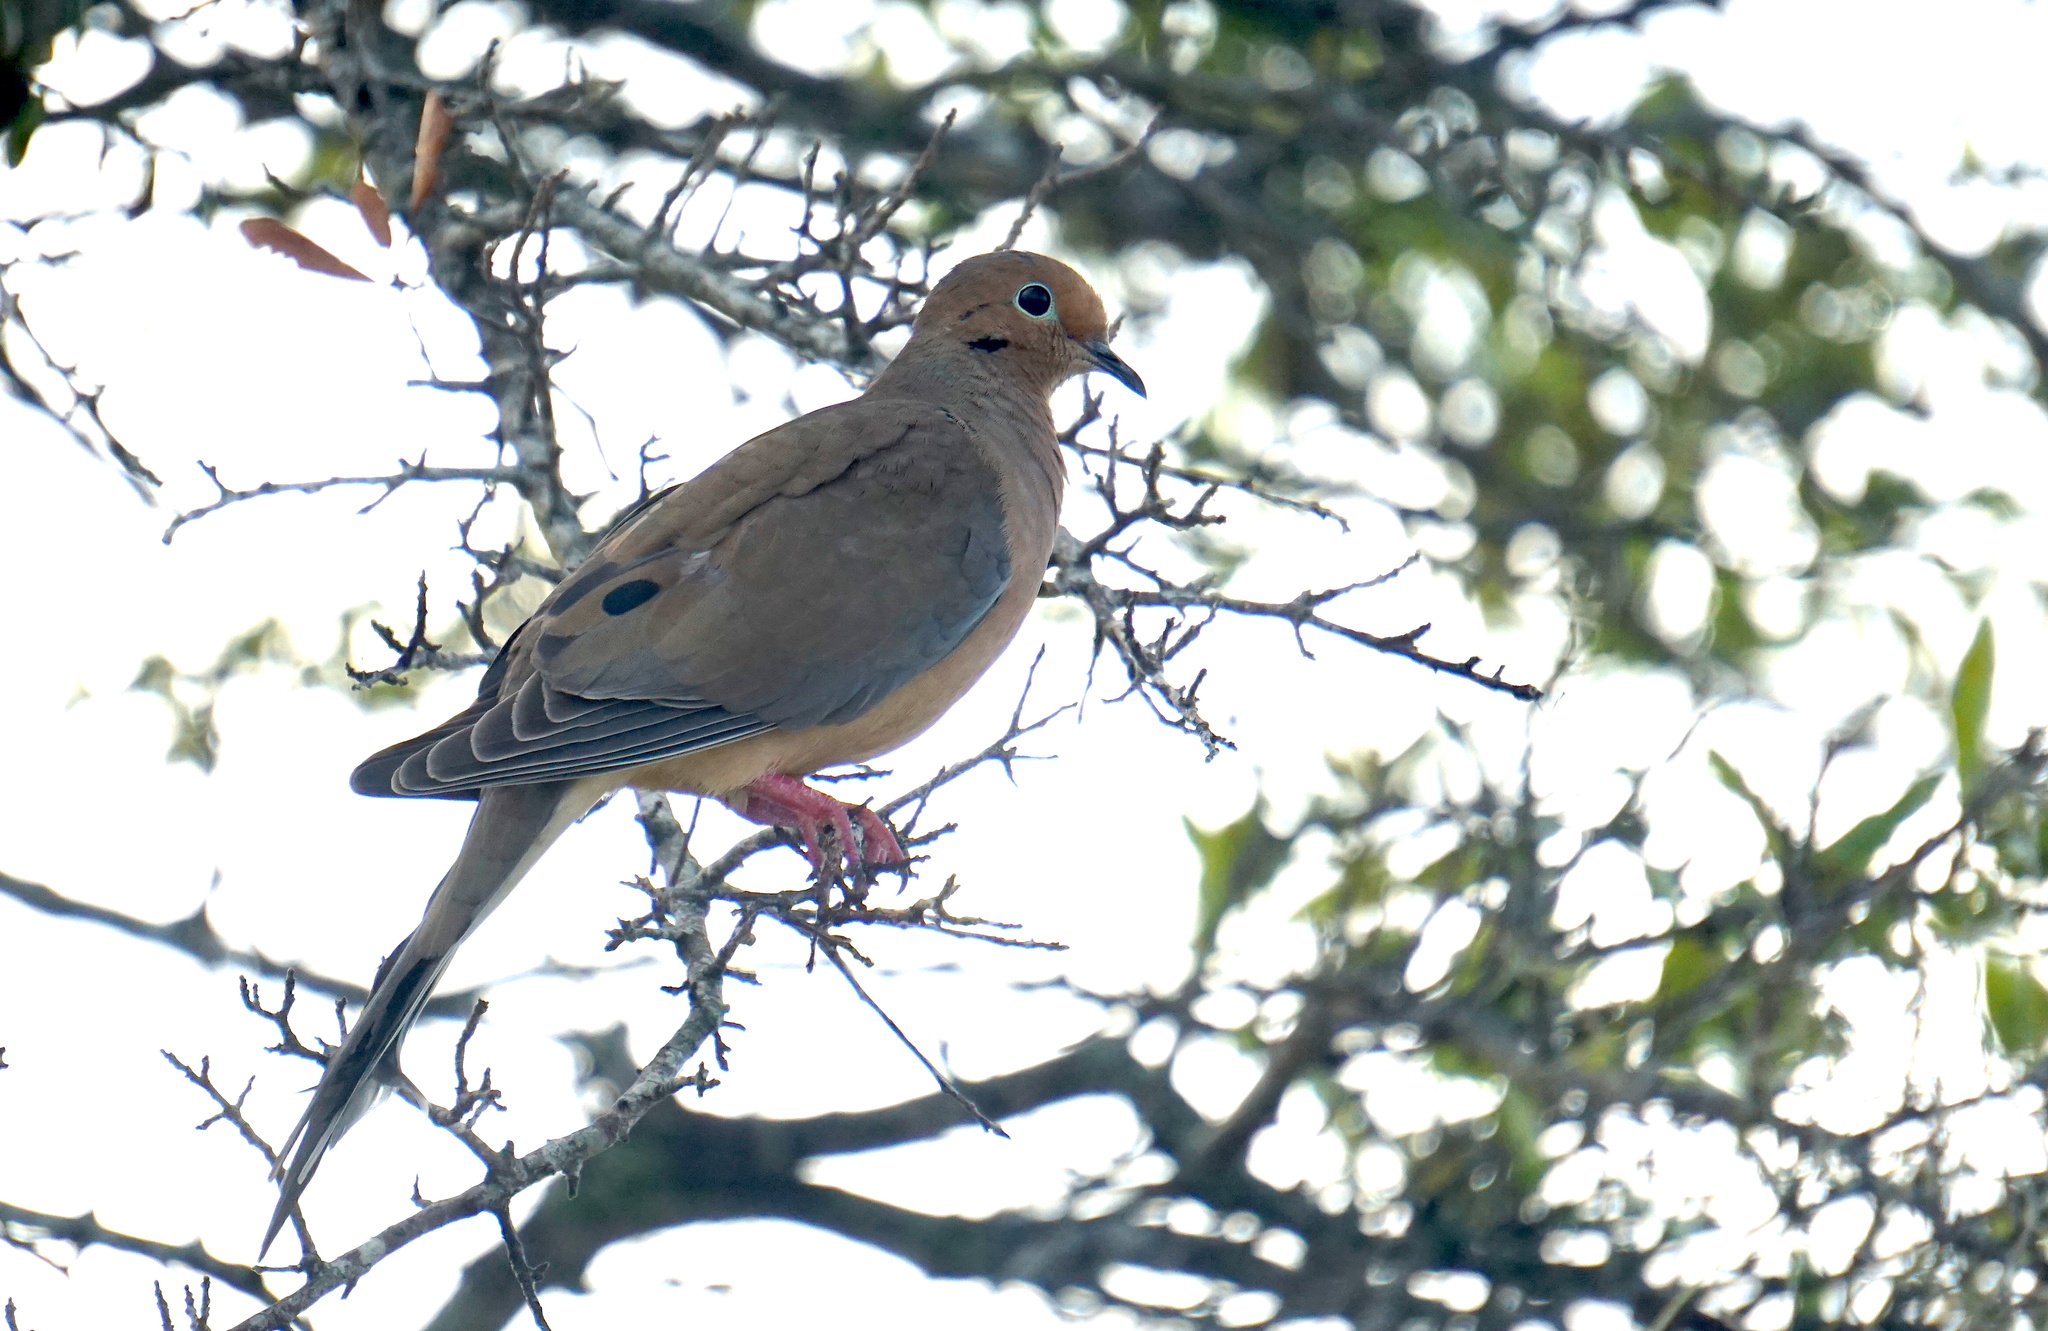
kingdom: Animalia
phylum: Chordata
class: Aves
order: Columbiformes
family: Columbidae
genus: Zenaida
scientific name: Zenaida macroura
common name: Mourning dove
